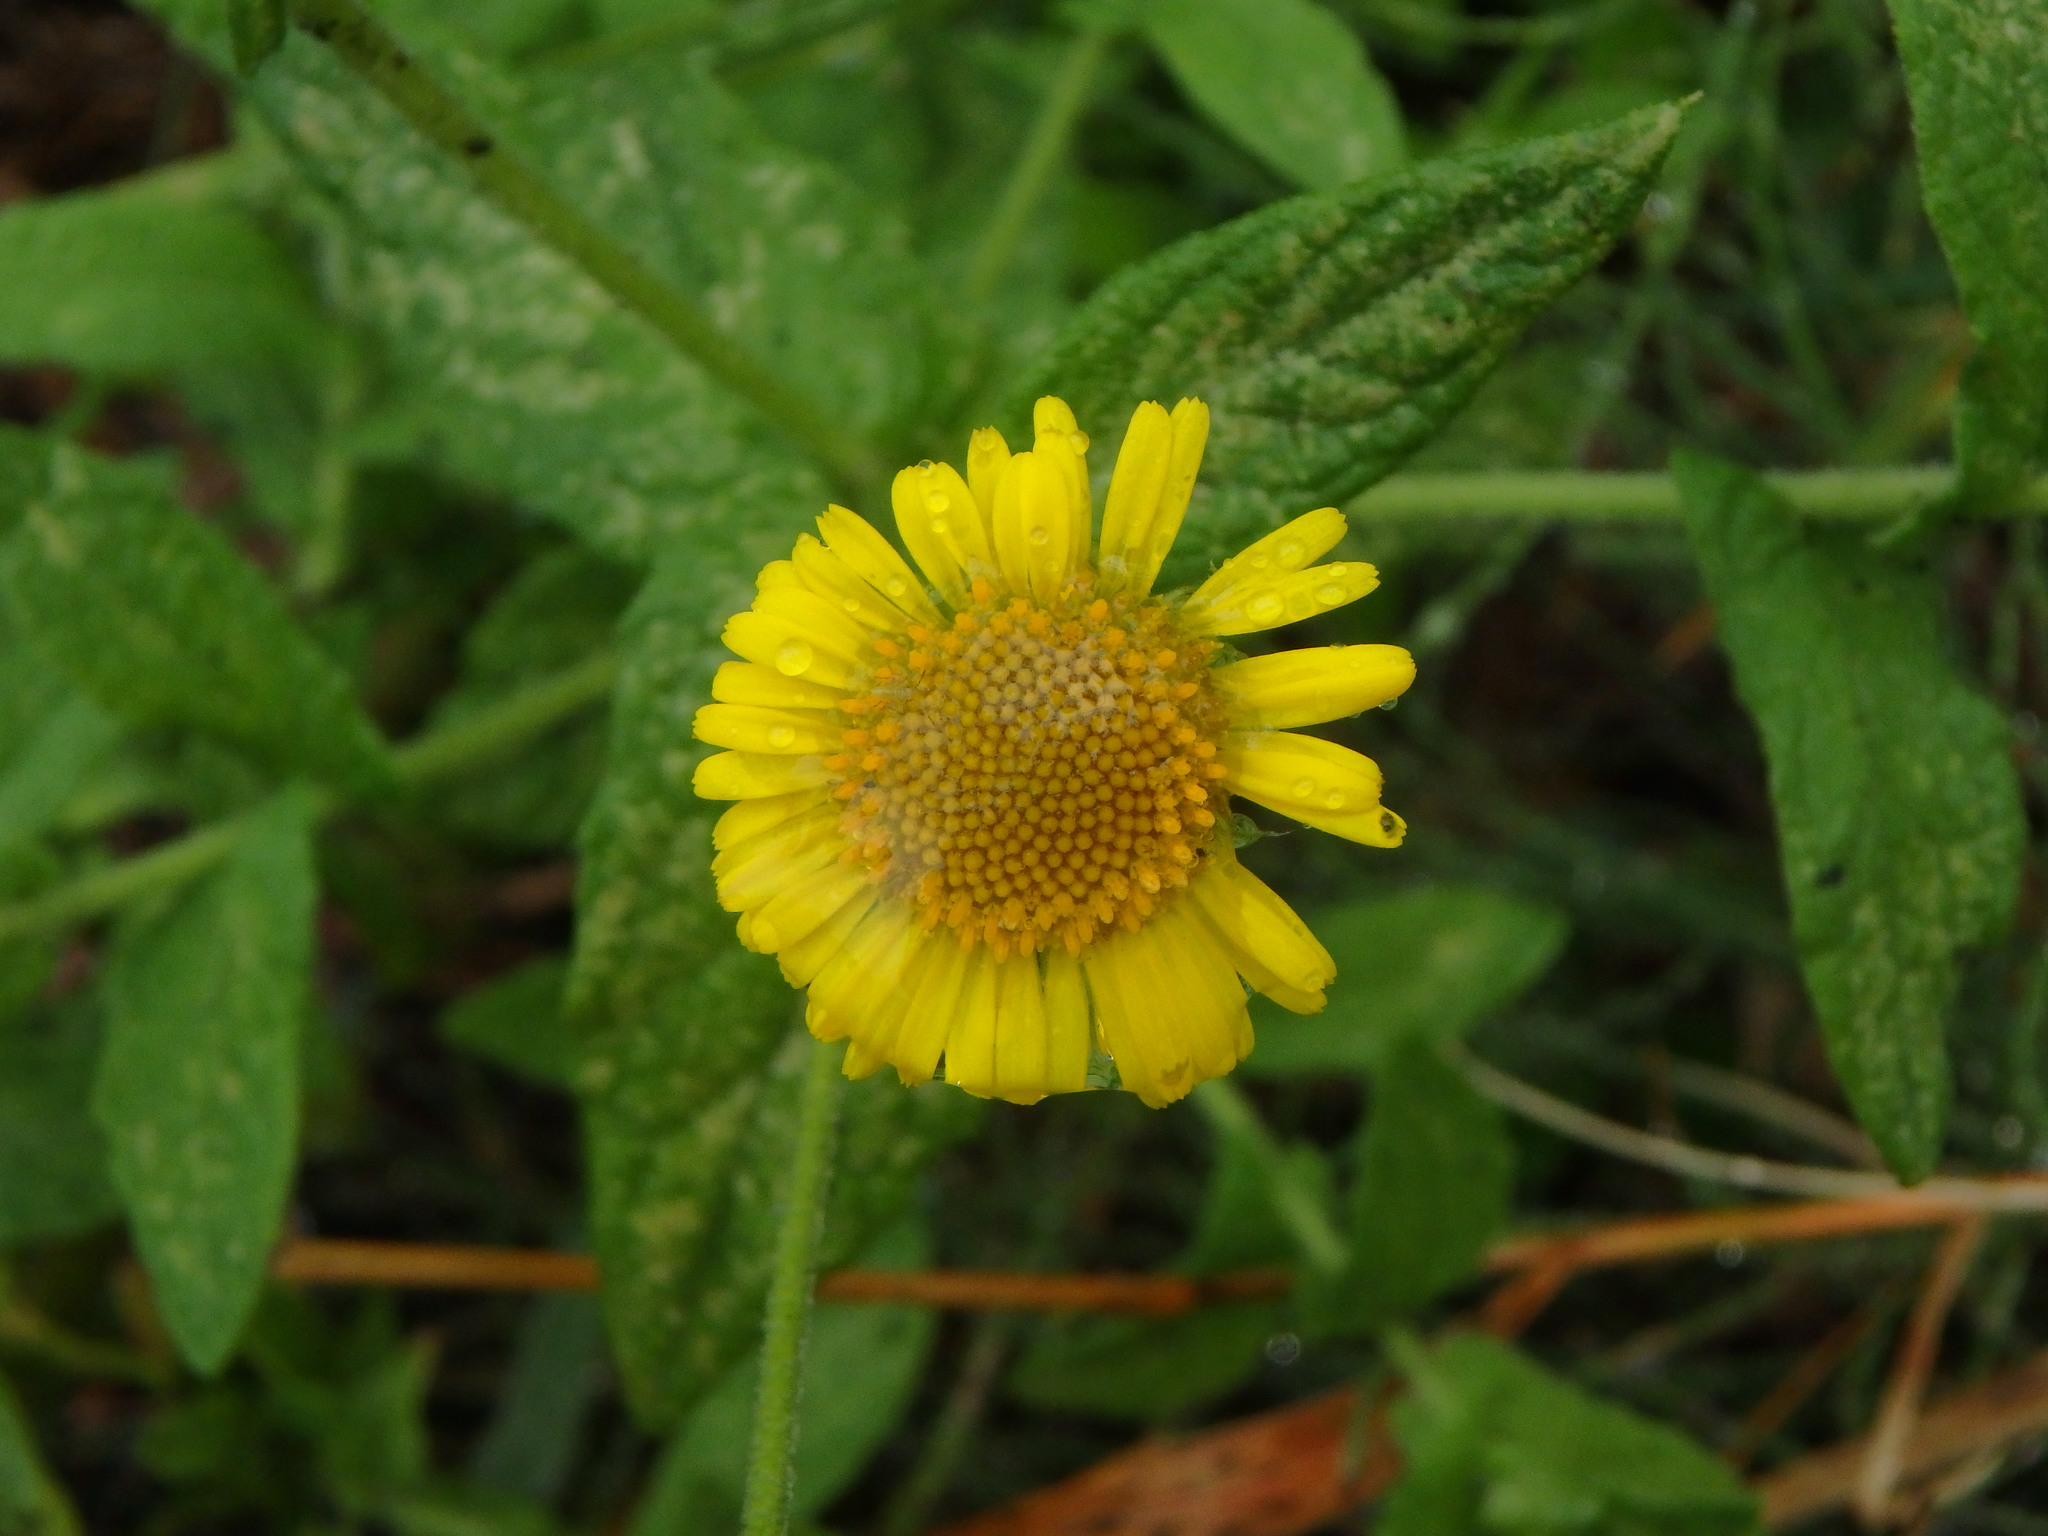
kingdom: Plantae
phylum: Tracheophyta
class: Magnoliopsida
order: Asterales
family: Asteraceae
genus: Pulicaria
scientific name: Pulicaria dysenterica
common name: Common fleabane
